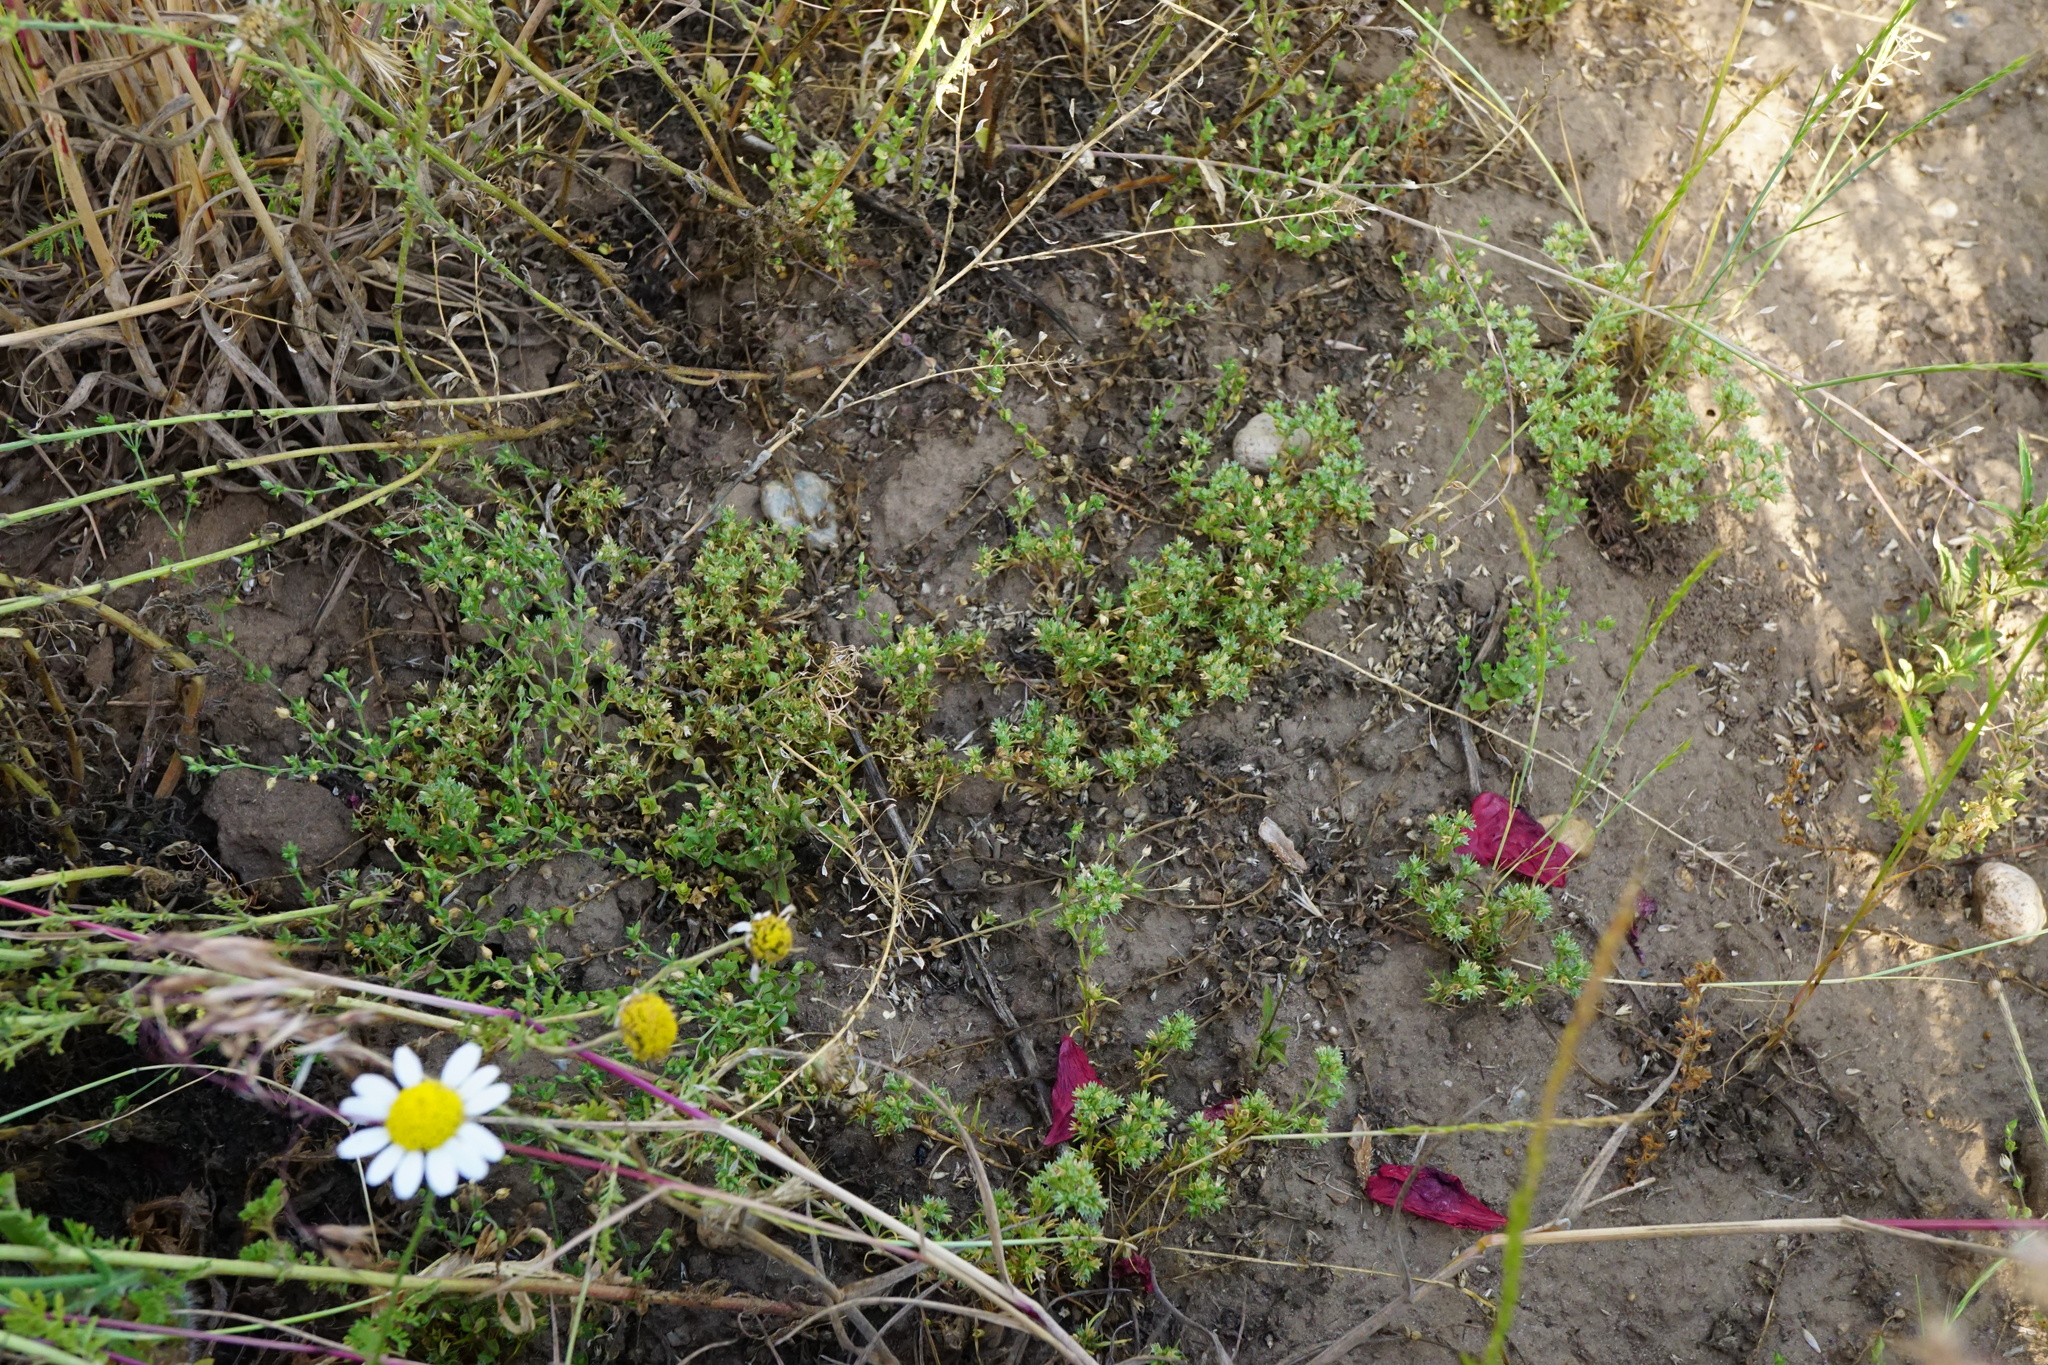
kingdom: Plantae
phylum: Tracheophyta
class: Magnoliopsida
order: Caryophyllales
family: Caryophyllaceae
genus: Arenaria
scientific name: Arenaria serpyllifolia
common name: Thyme-leaved sandwort
